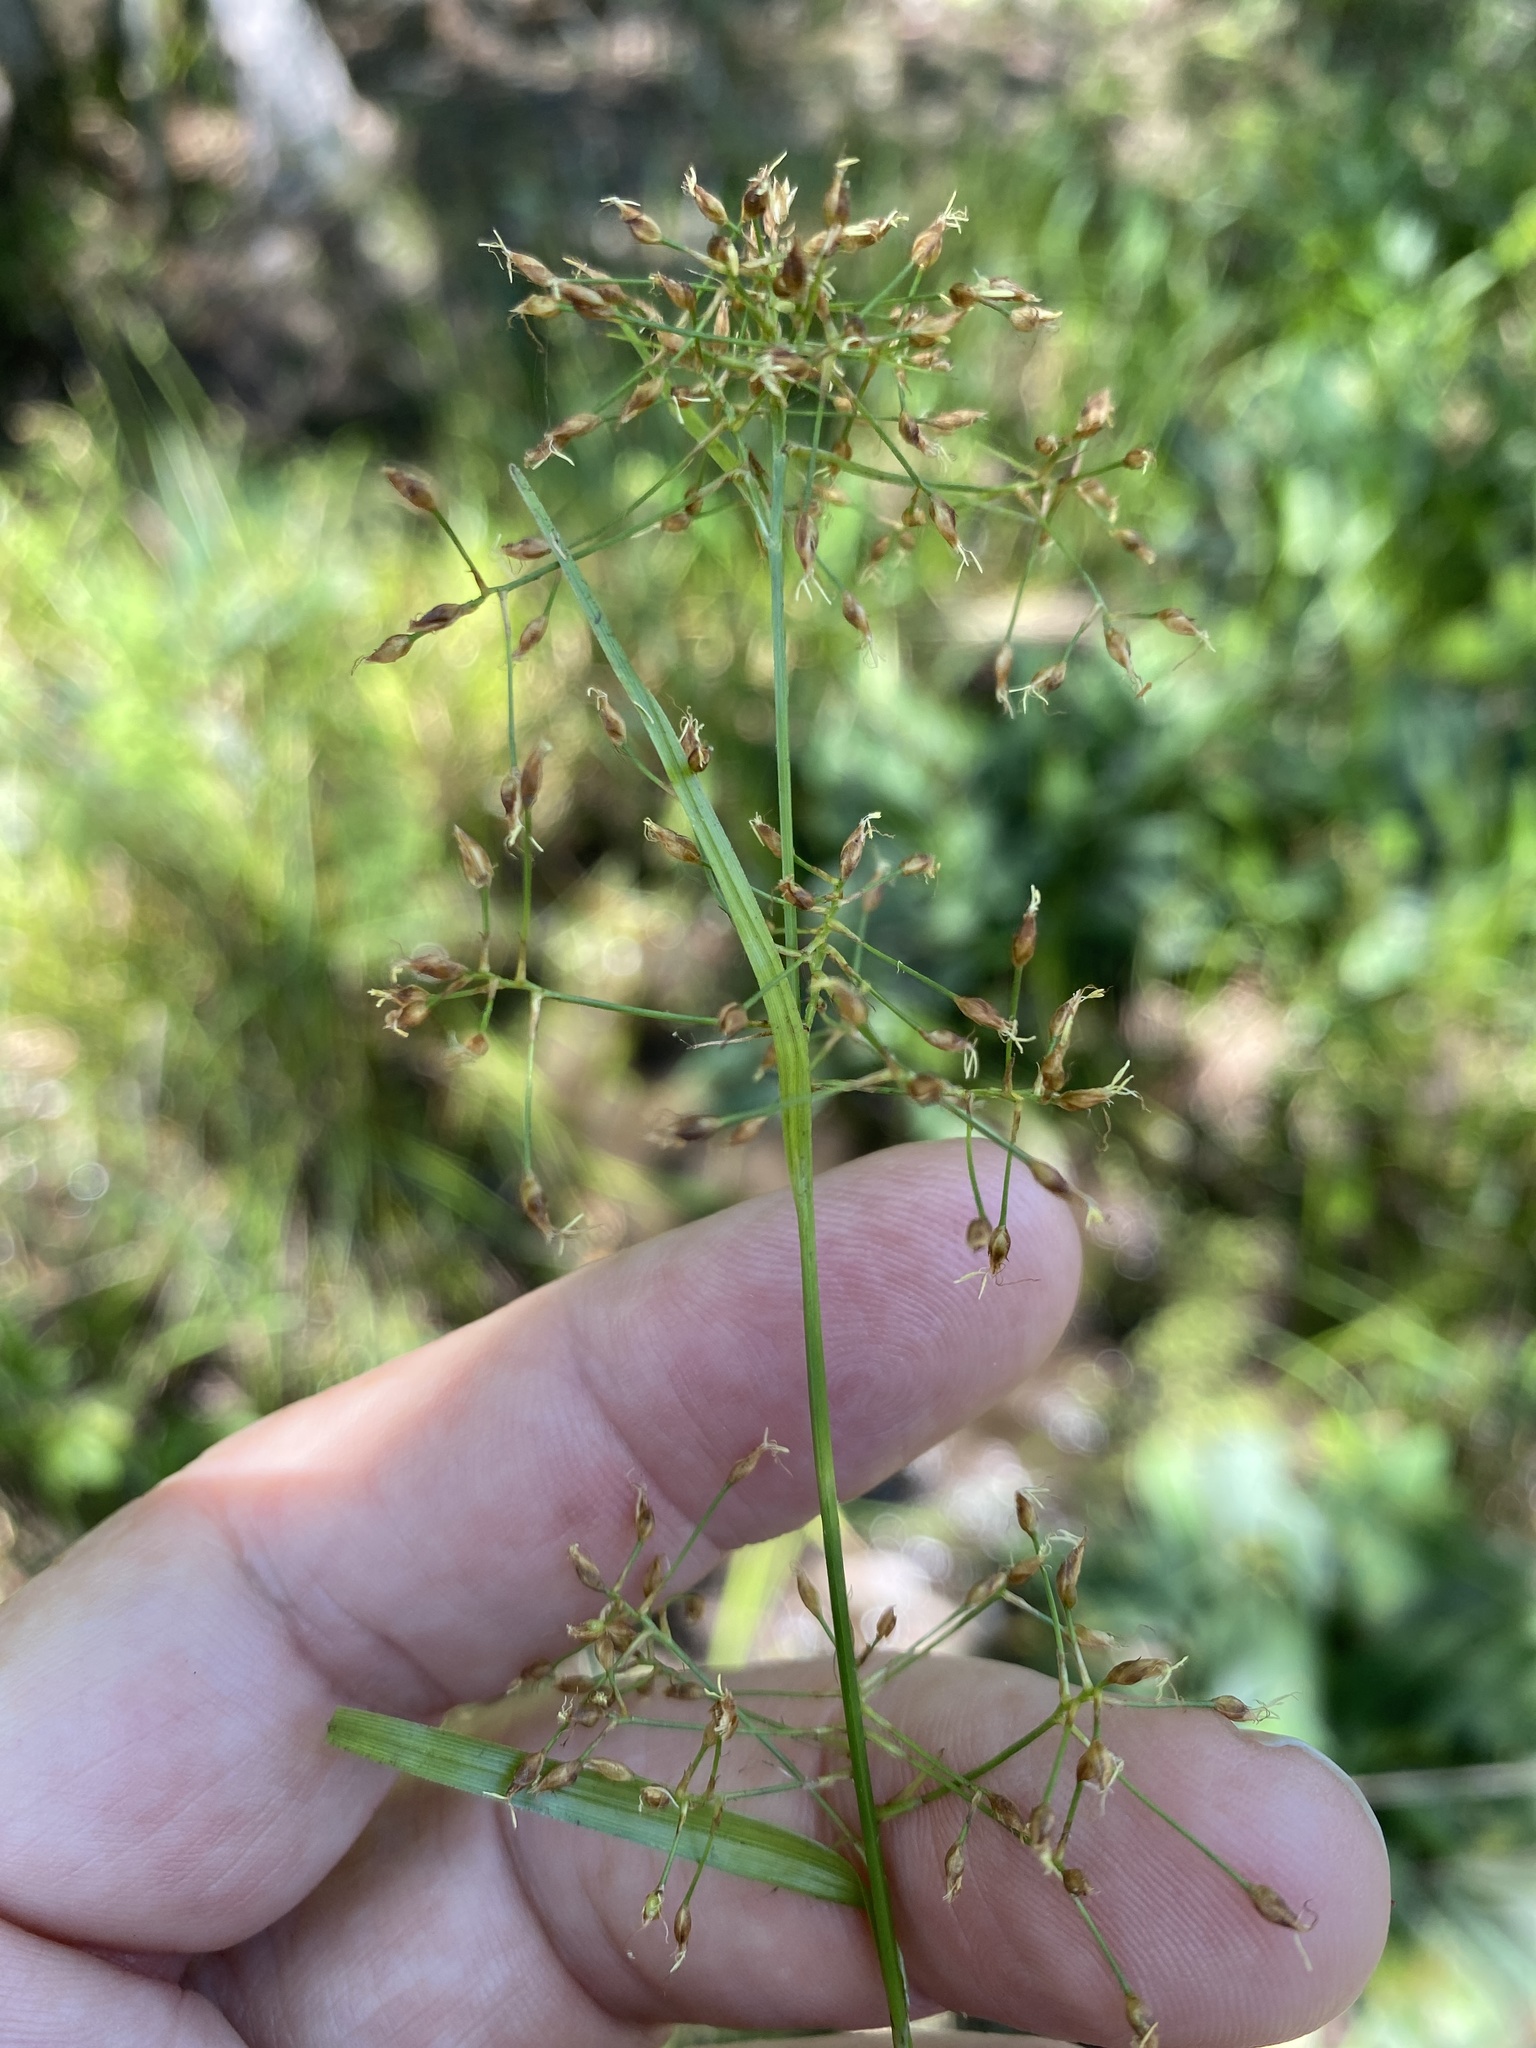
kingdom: Plantae
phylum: Tracheophyta
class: Liliopsida
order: Poales
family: Cyperaceae
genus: Rhynchospora
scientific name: Rhynchospora mixta
